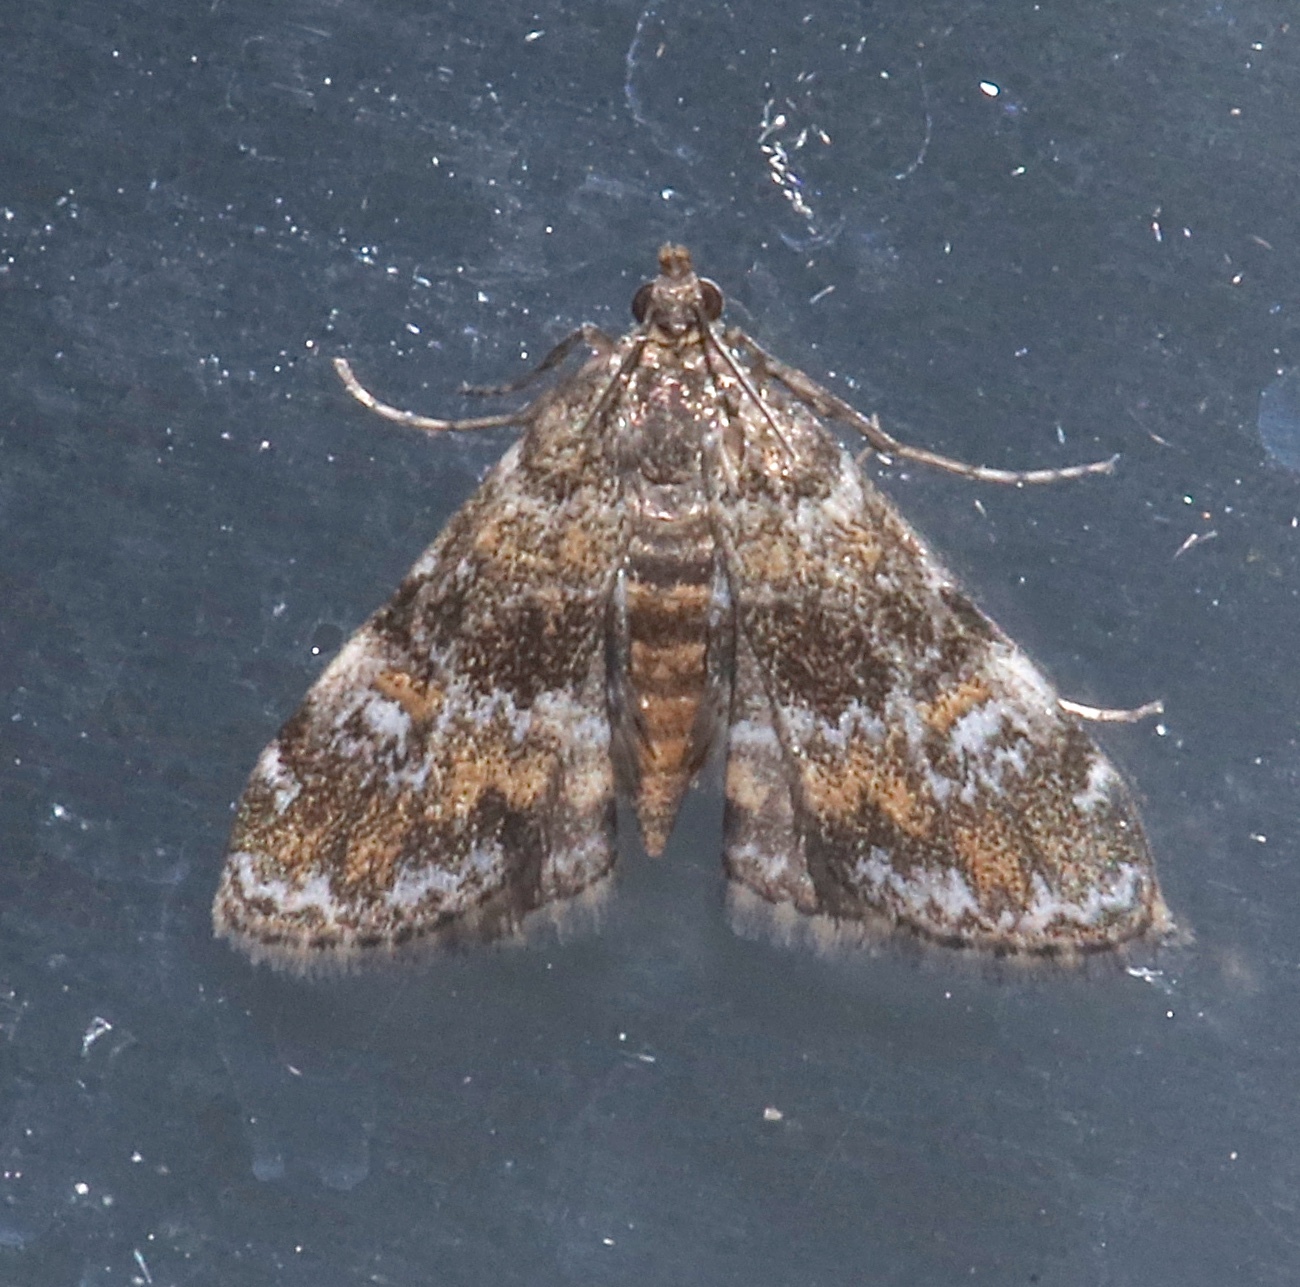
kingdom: Animalia
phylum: Arthropoda
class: Insecta
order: Lepidoptera
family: Crambidae
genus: Elophila
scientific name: Elophila obliteralis
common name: Waterlily leafcutter moth
